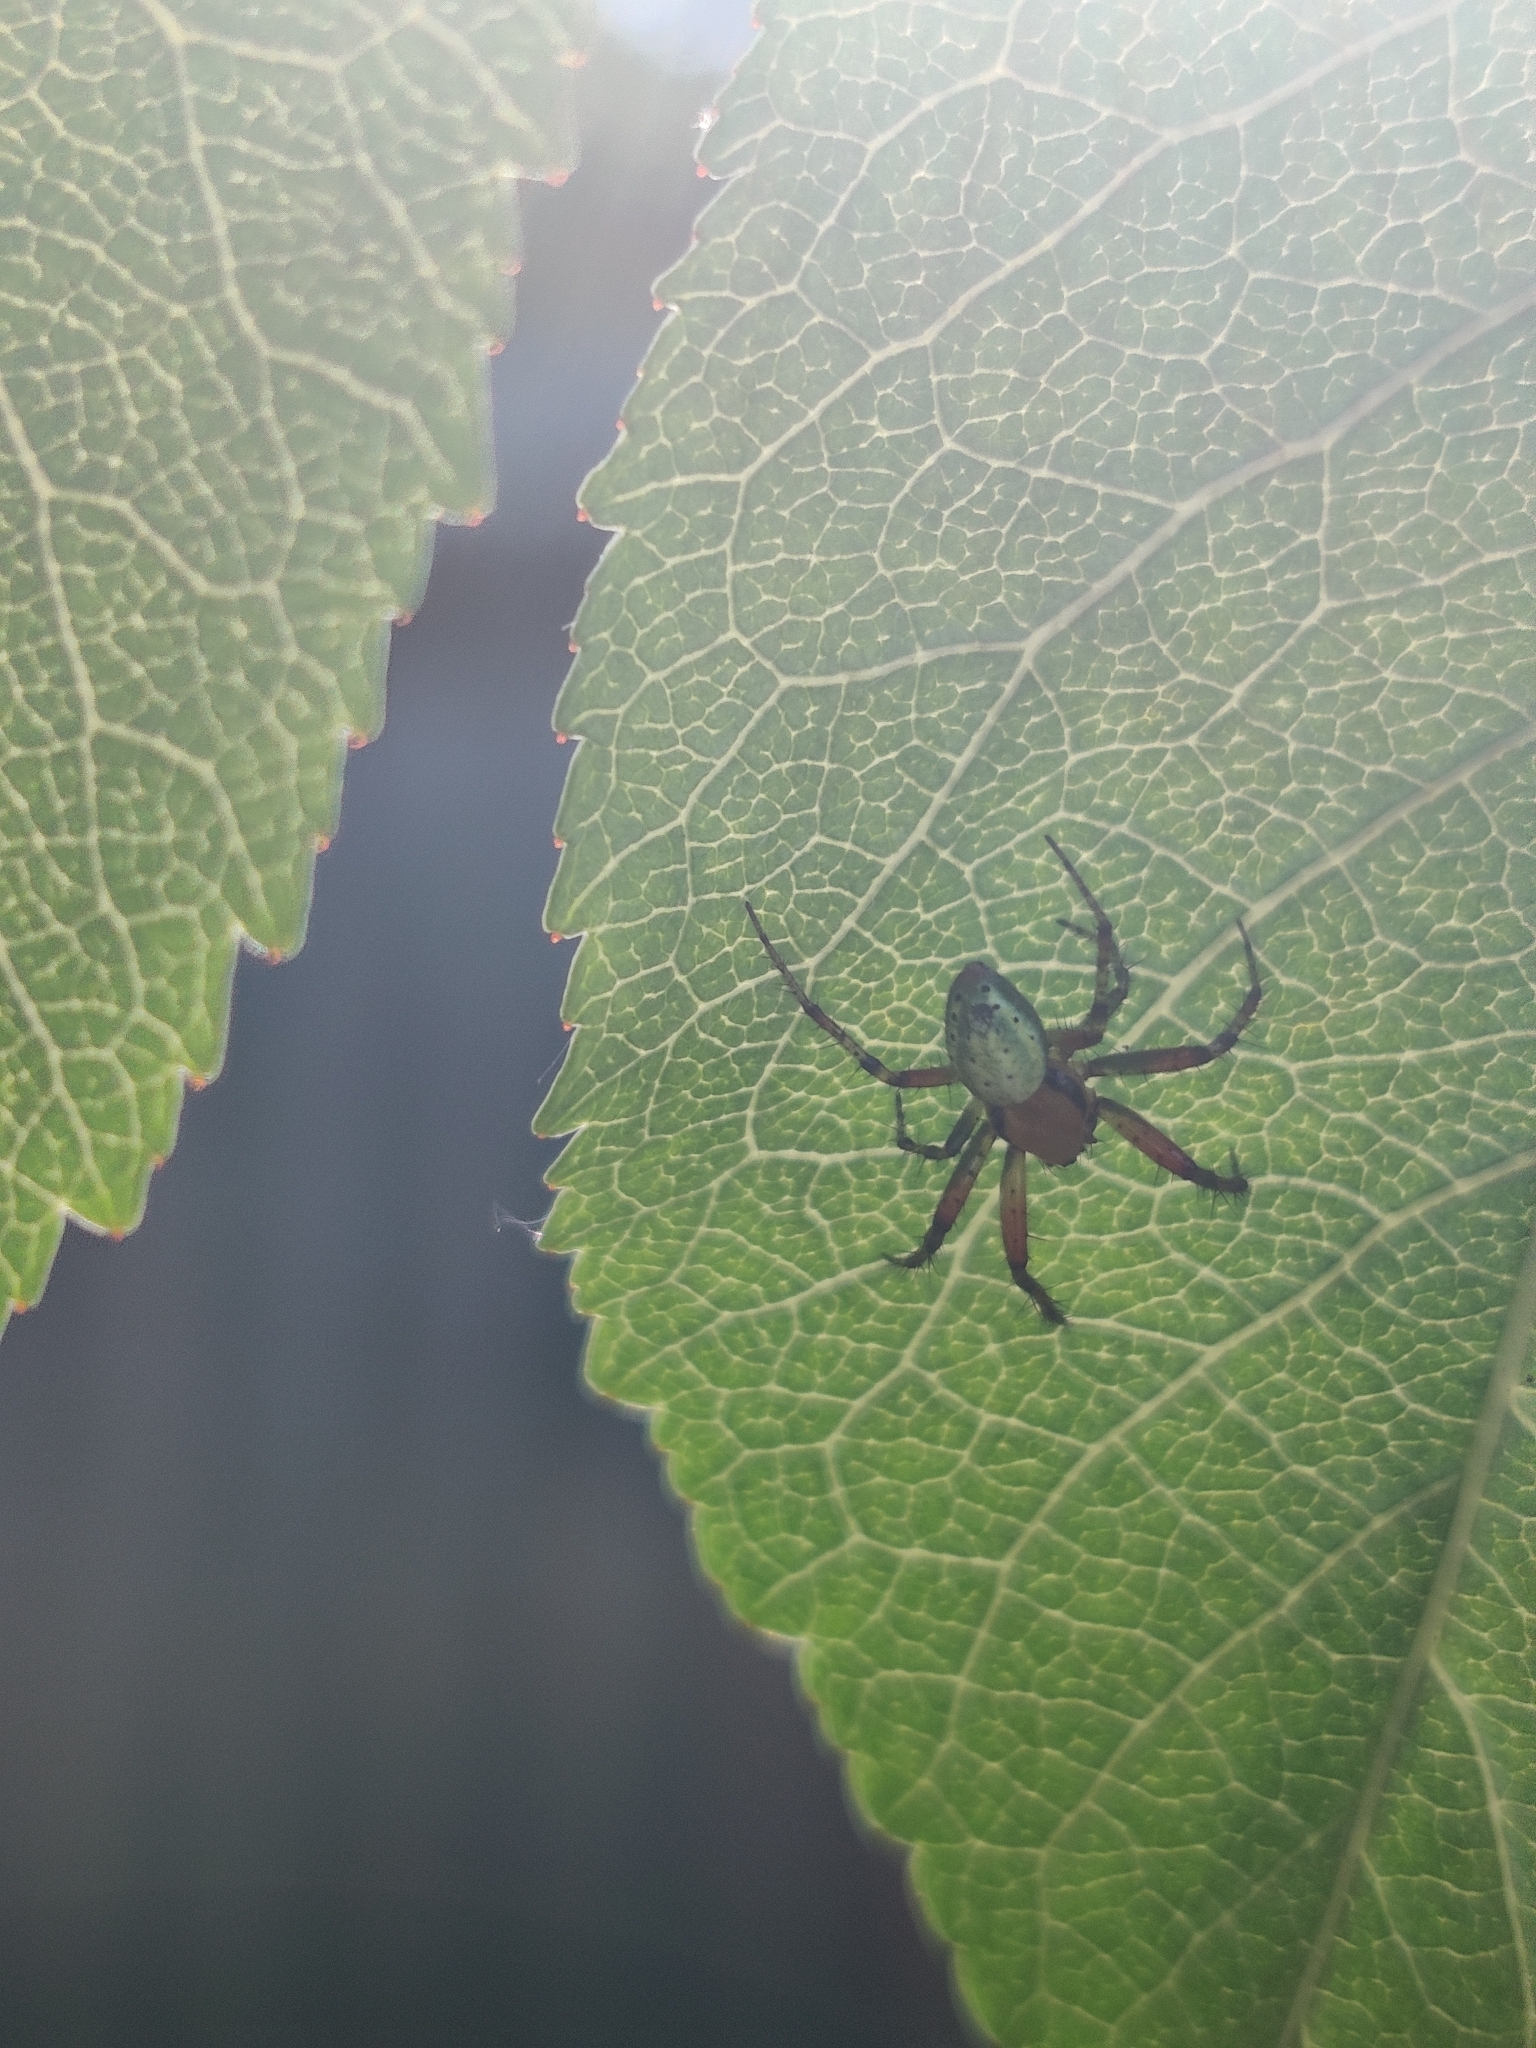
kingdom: Animalia
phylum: Arthropoda
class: Arachnida
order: Araneae
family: Araneidae
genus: Araniella
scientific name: Araniella
